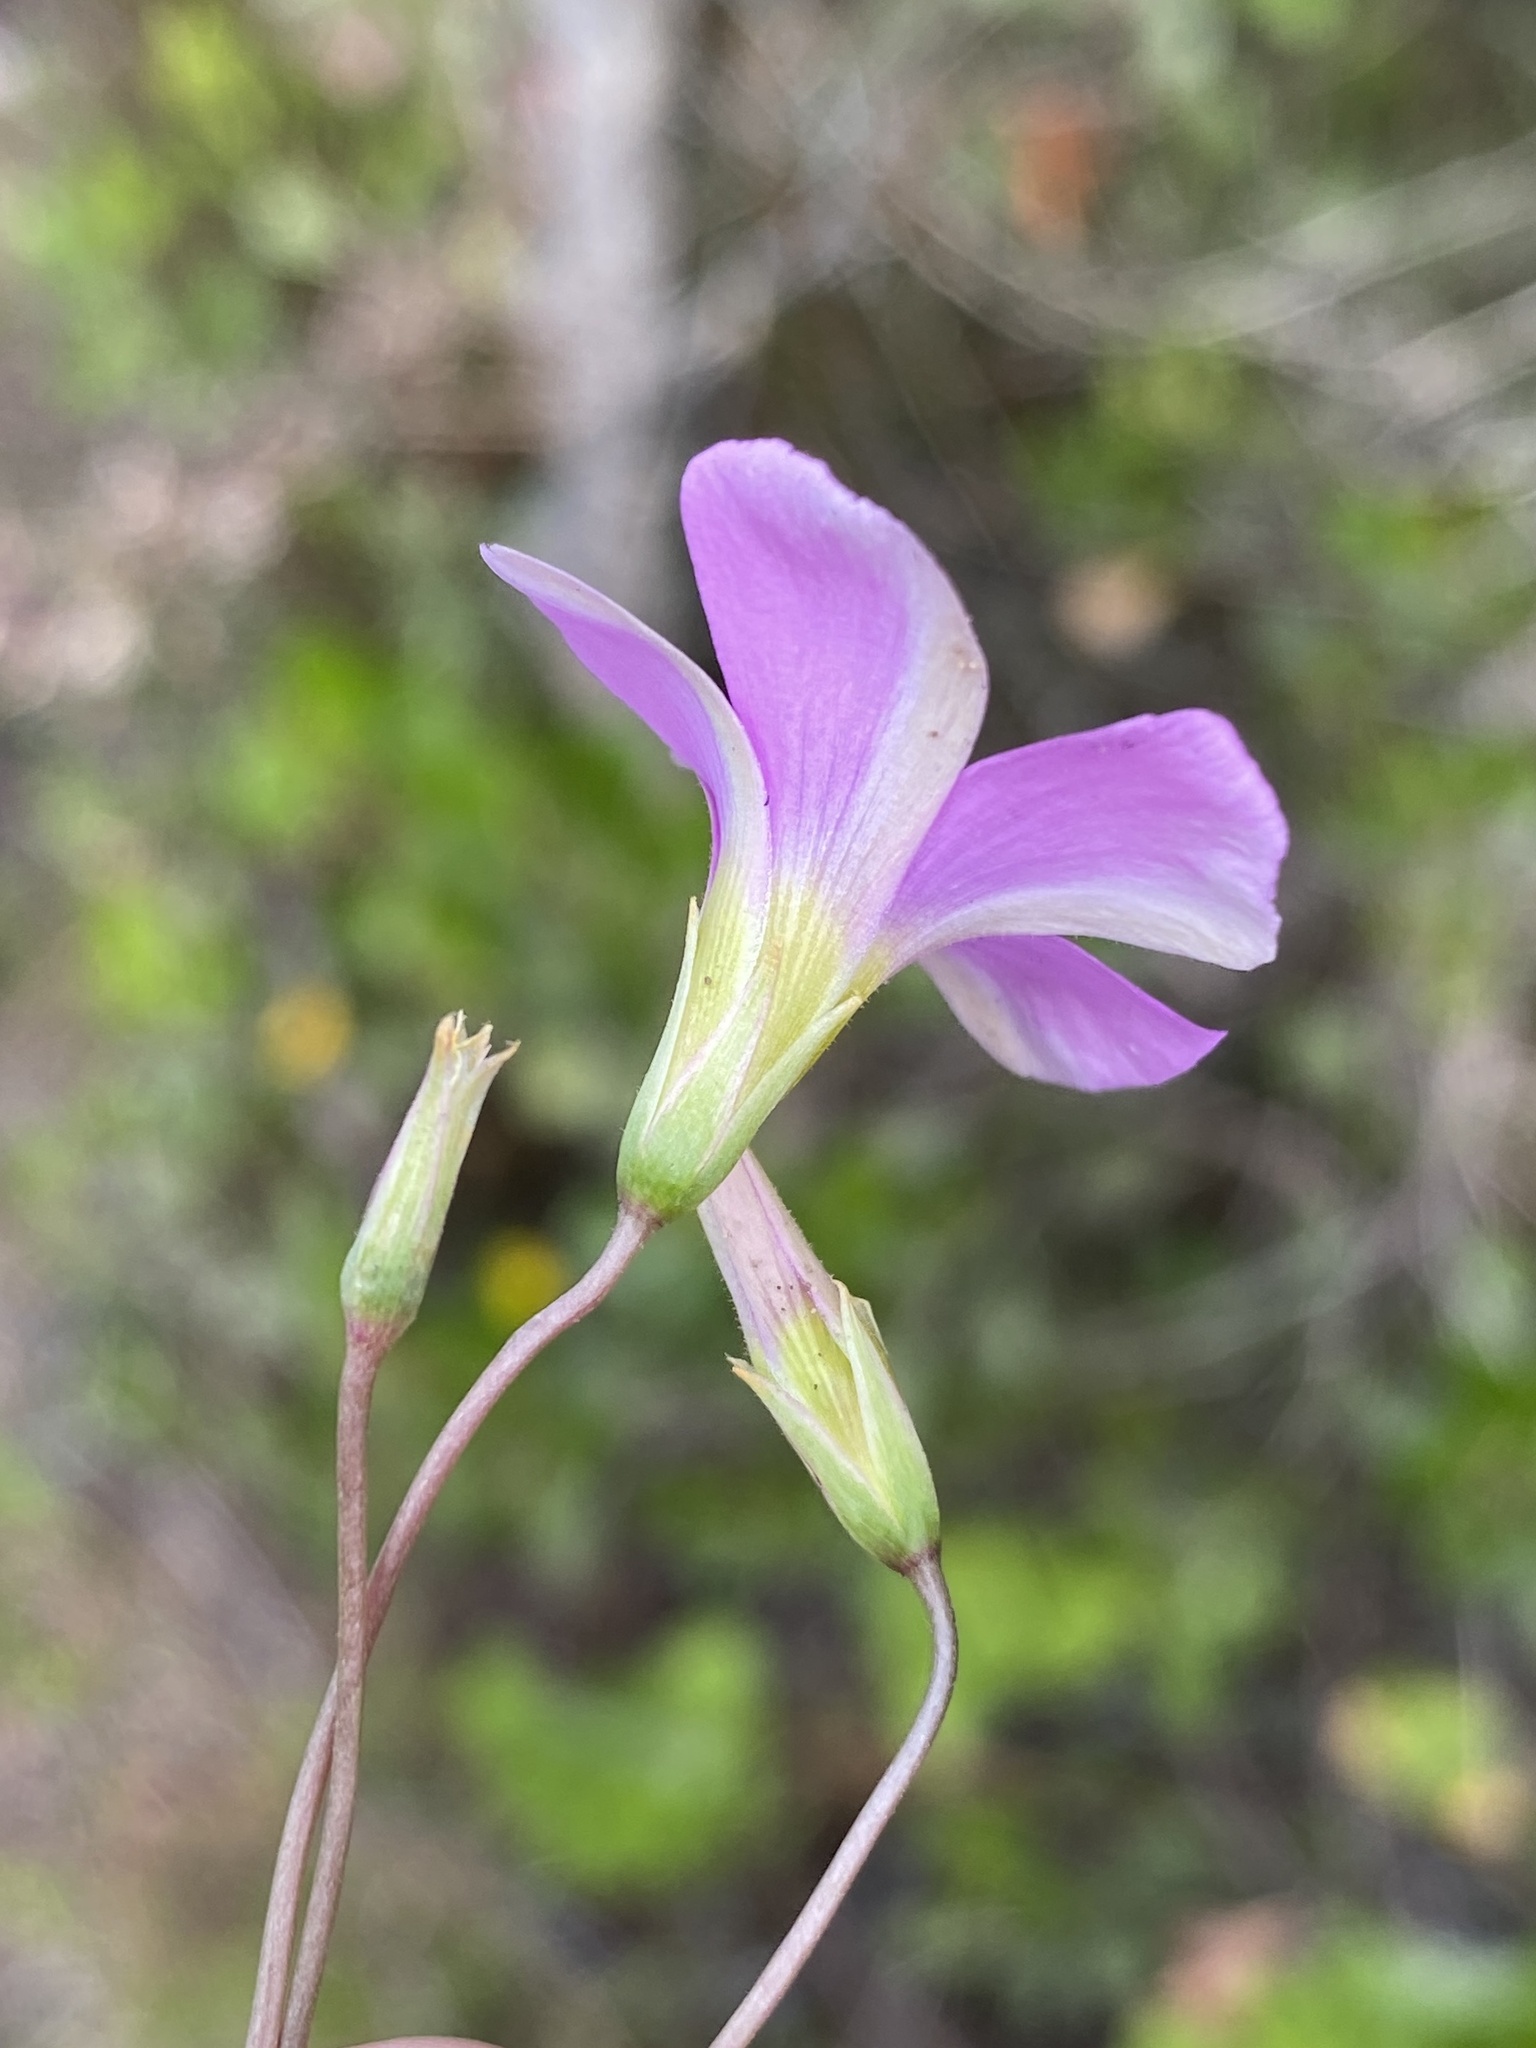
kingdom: Plantae
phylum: Tracheophyta
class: Magnoliopsida
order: Oxalidales
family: Oxalidaceae
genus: Oxalis
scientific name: Oxalis stellata
